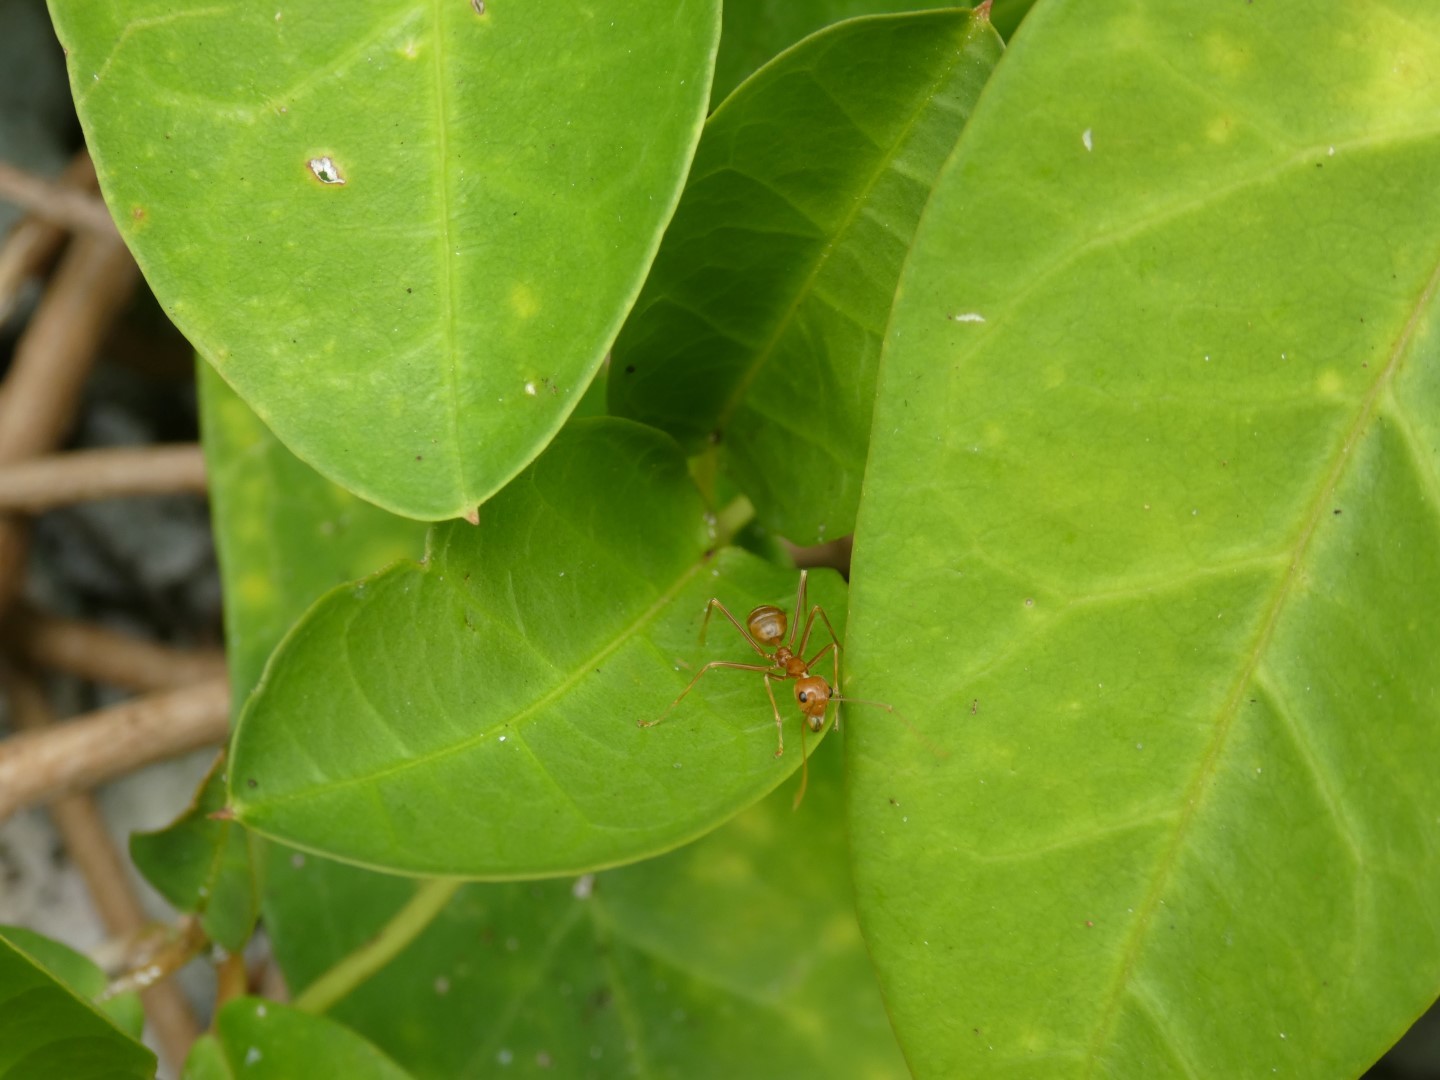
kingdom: Animalia
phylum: Arthropoda
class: Insecta
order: Hymenoptera
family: Formicidae
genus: Oecophylla
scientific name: Oecophylla smaragdina
